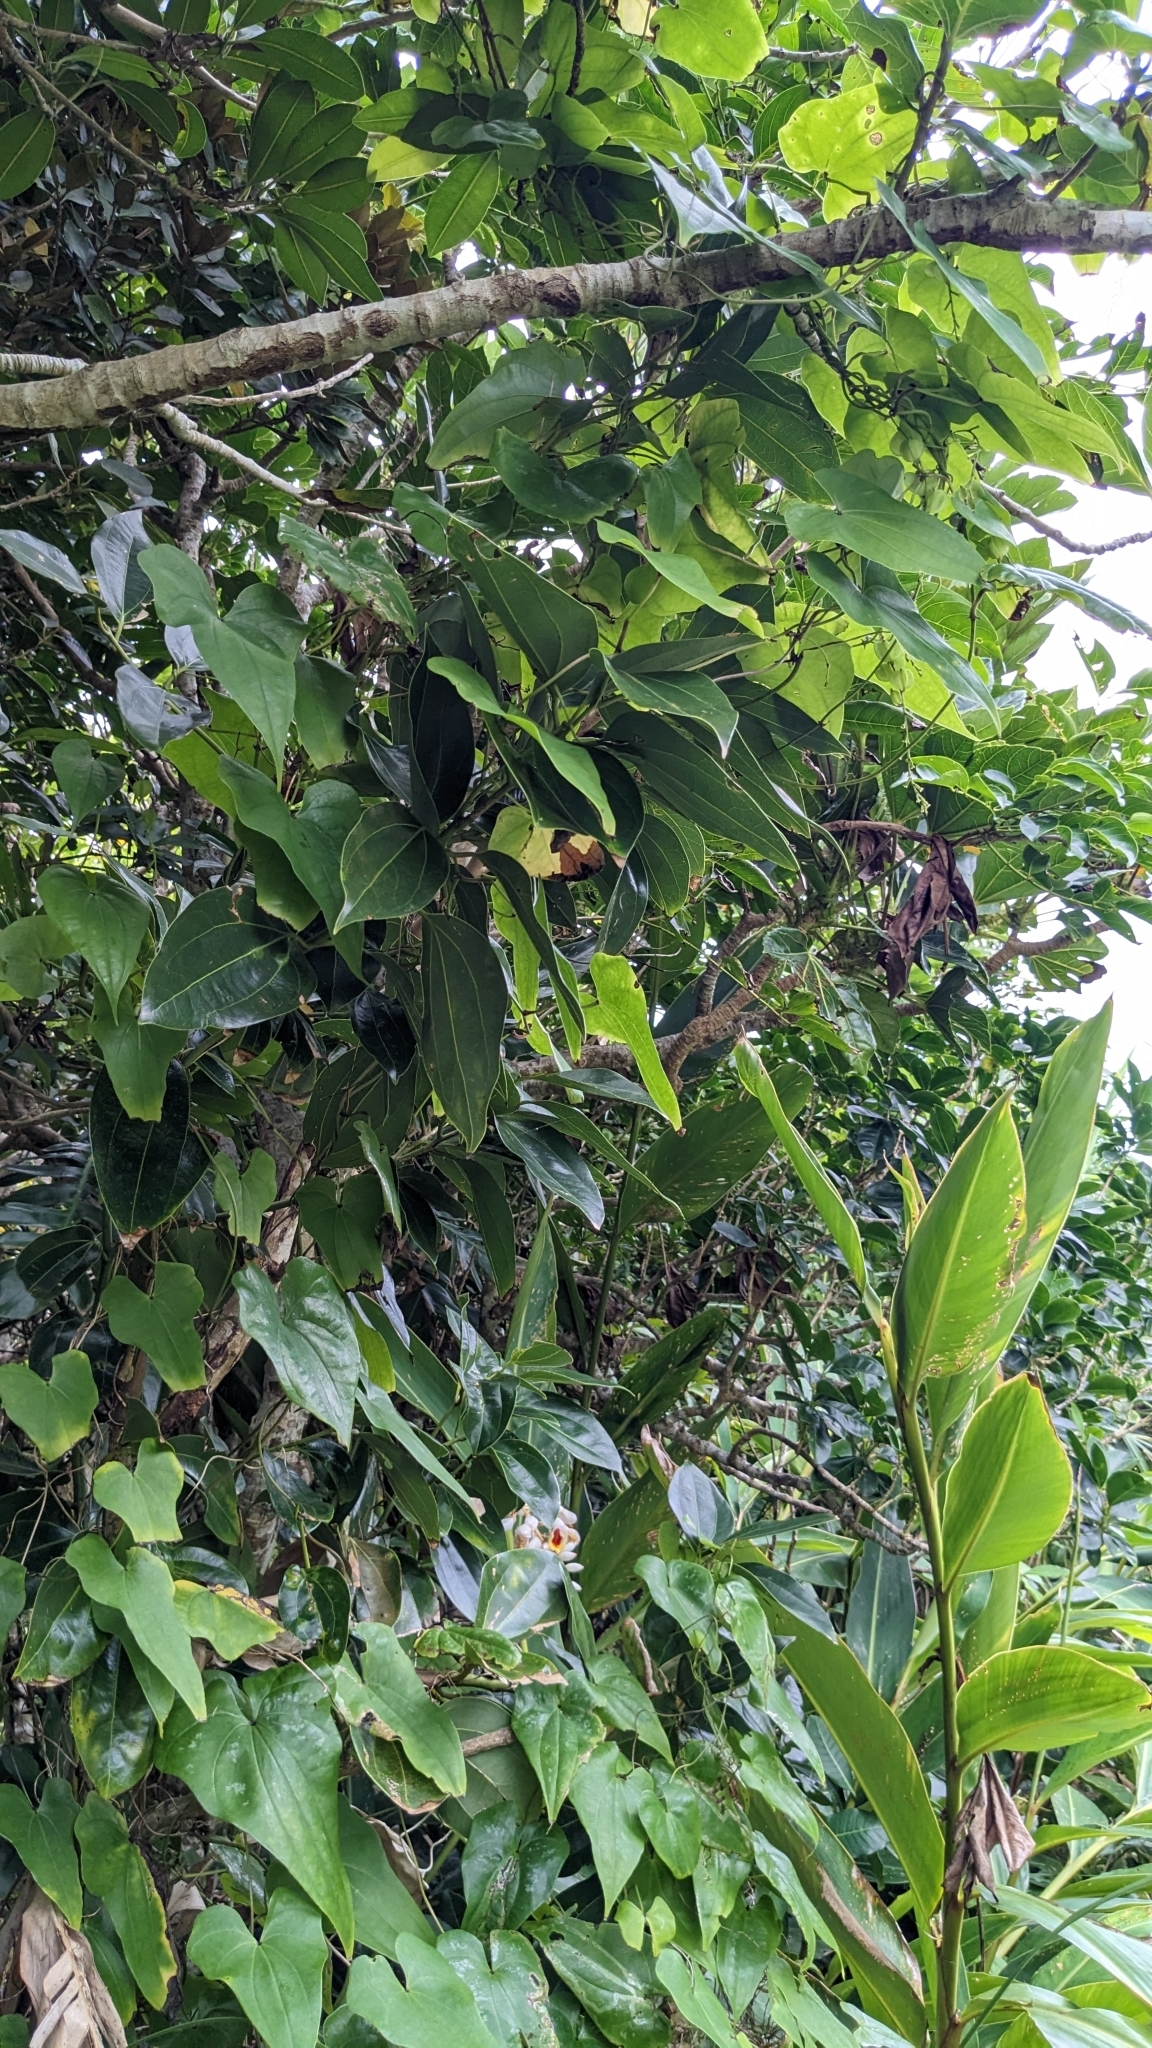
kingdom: Plantae
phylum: Tracheophyta
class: Magnoliopsida
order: Laurales
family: Lauraceae
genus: Cinnamomum
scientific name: Cinnamomum kotoense
